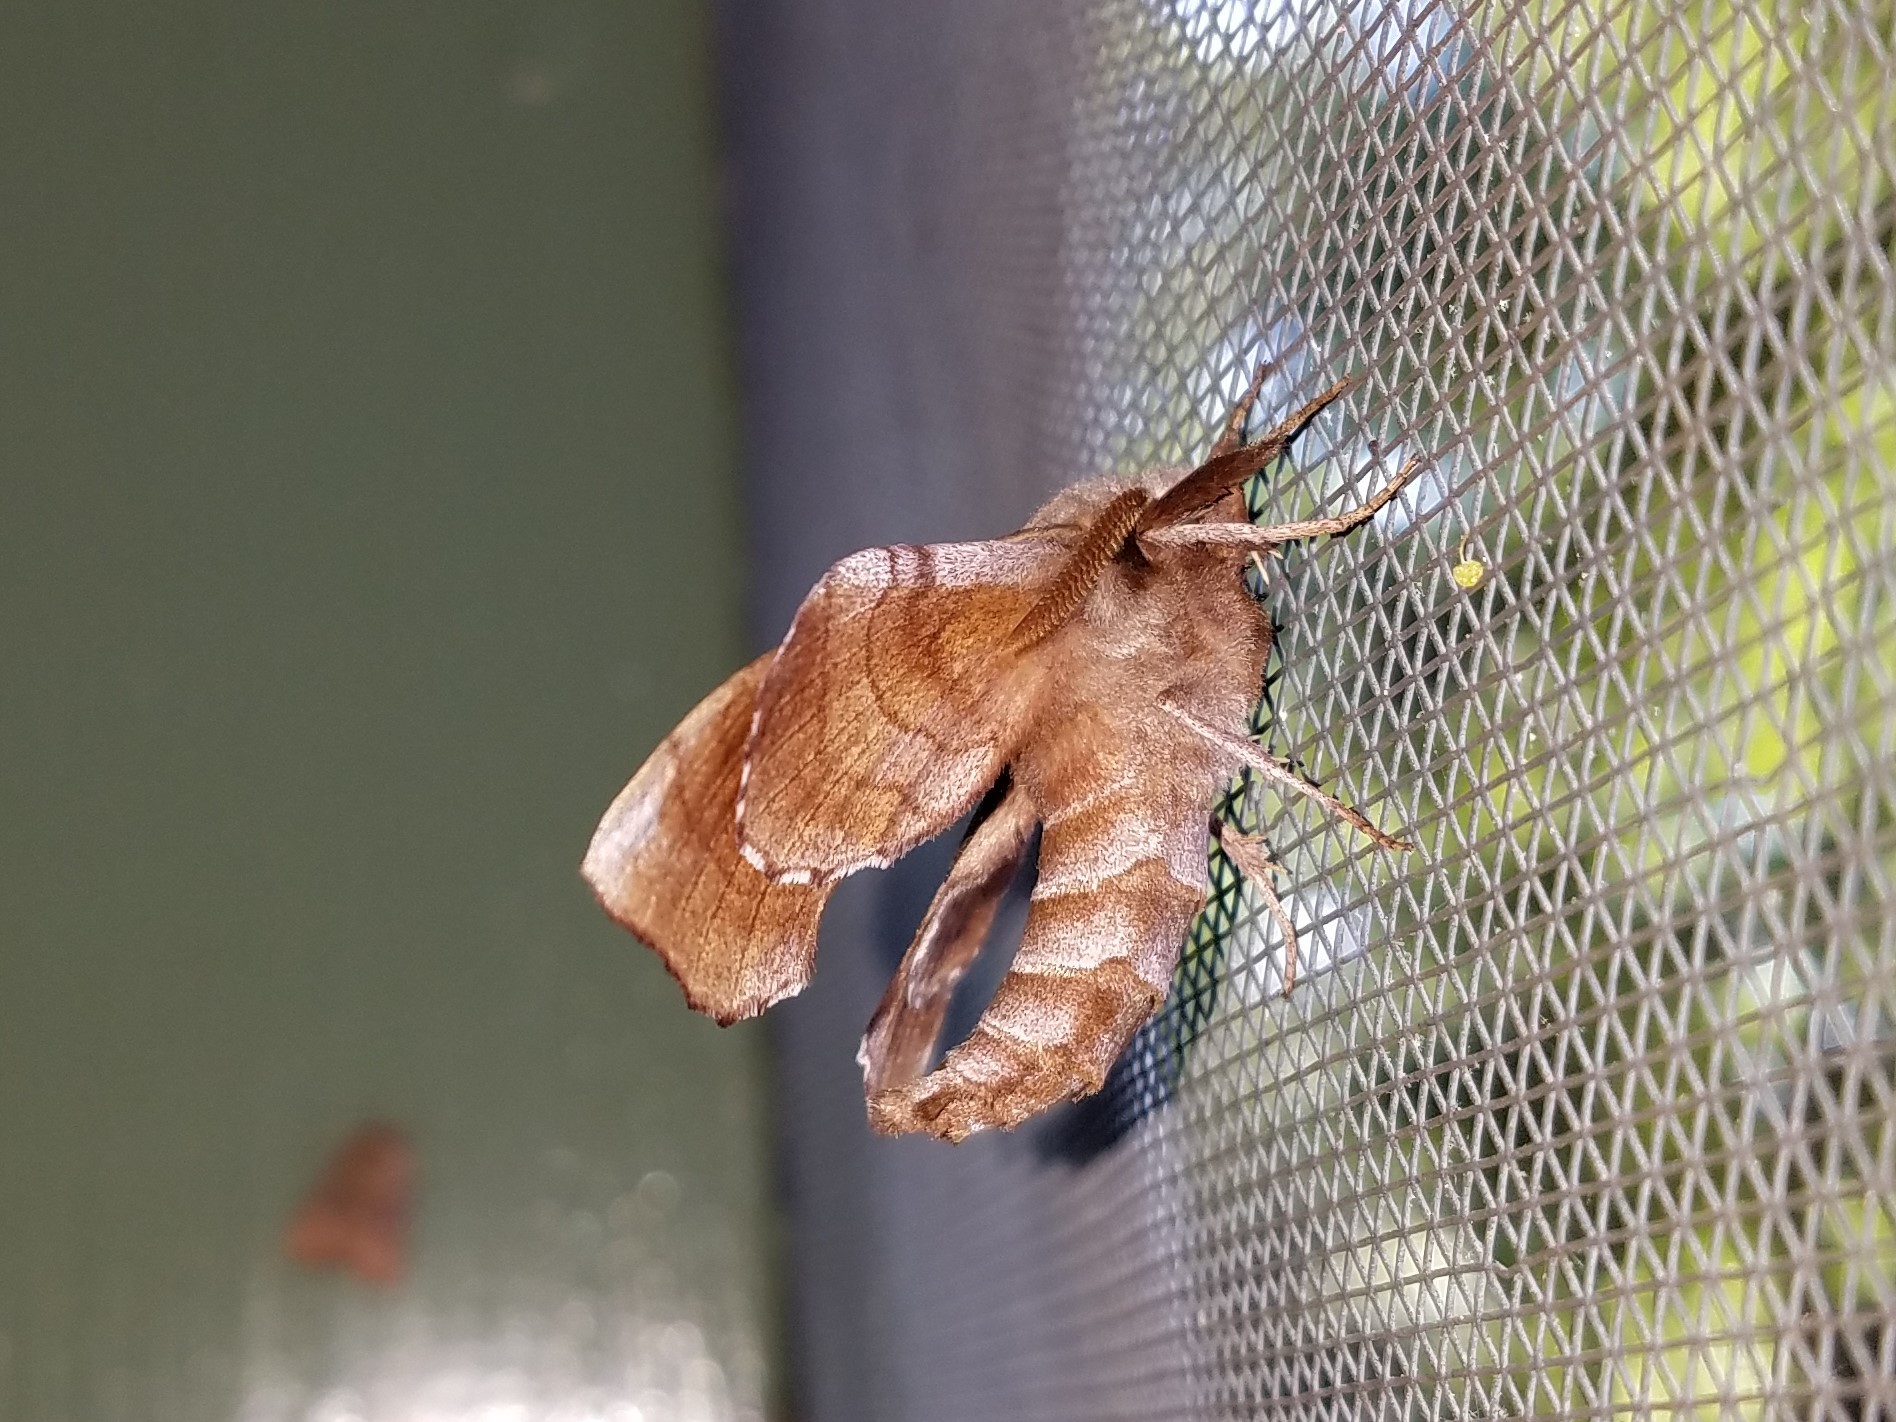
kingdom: Animalia
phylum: Arthropoda
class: Insecta
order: Lepidoptera
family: Sphingidae
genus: Amorpha
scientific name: Amorpha juglandis
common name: Walnut sphinx
